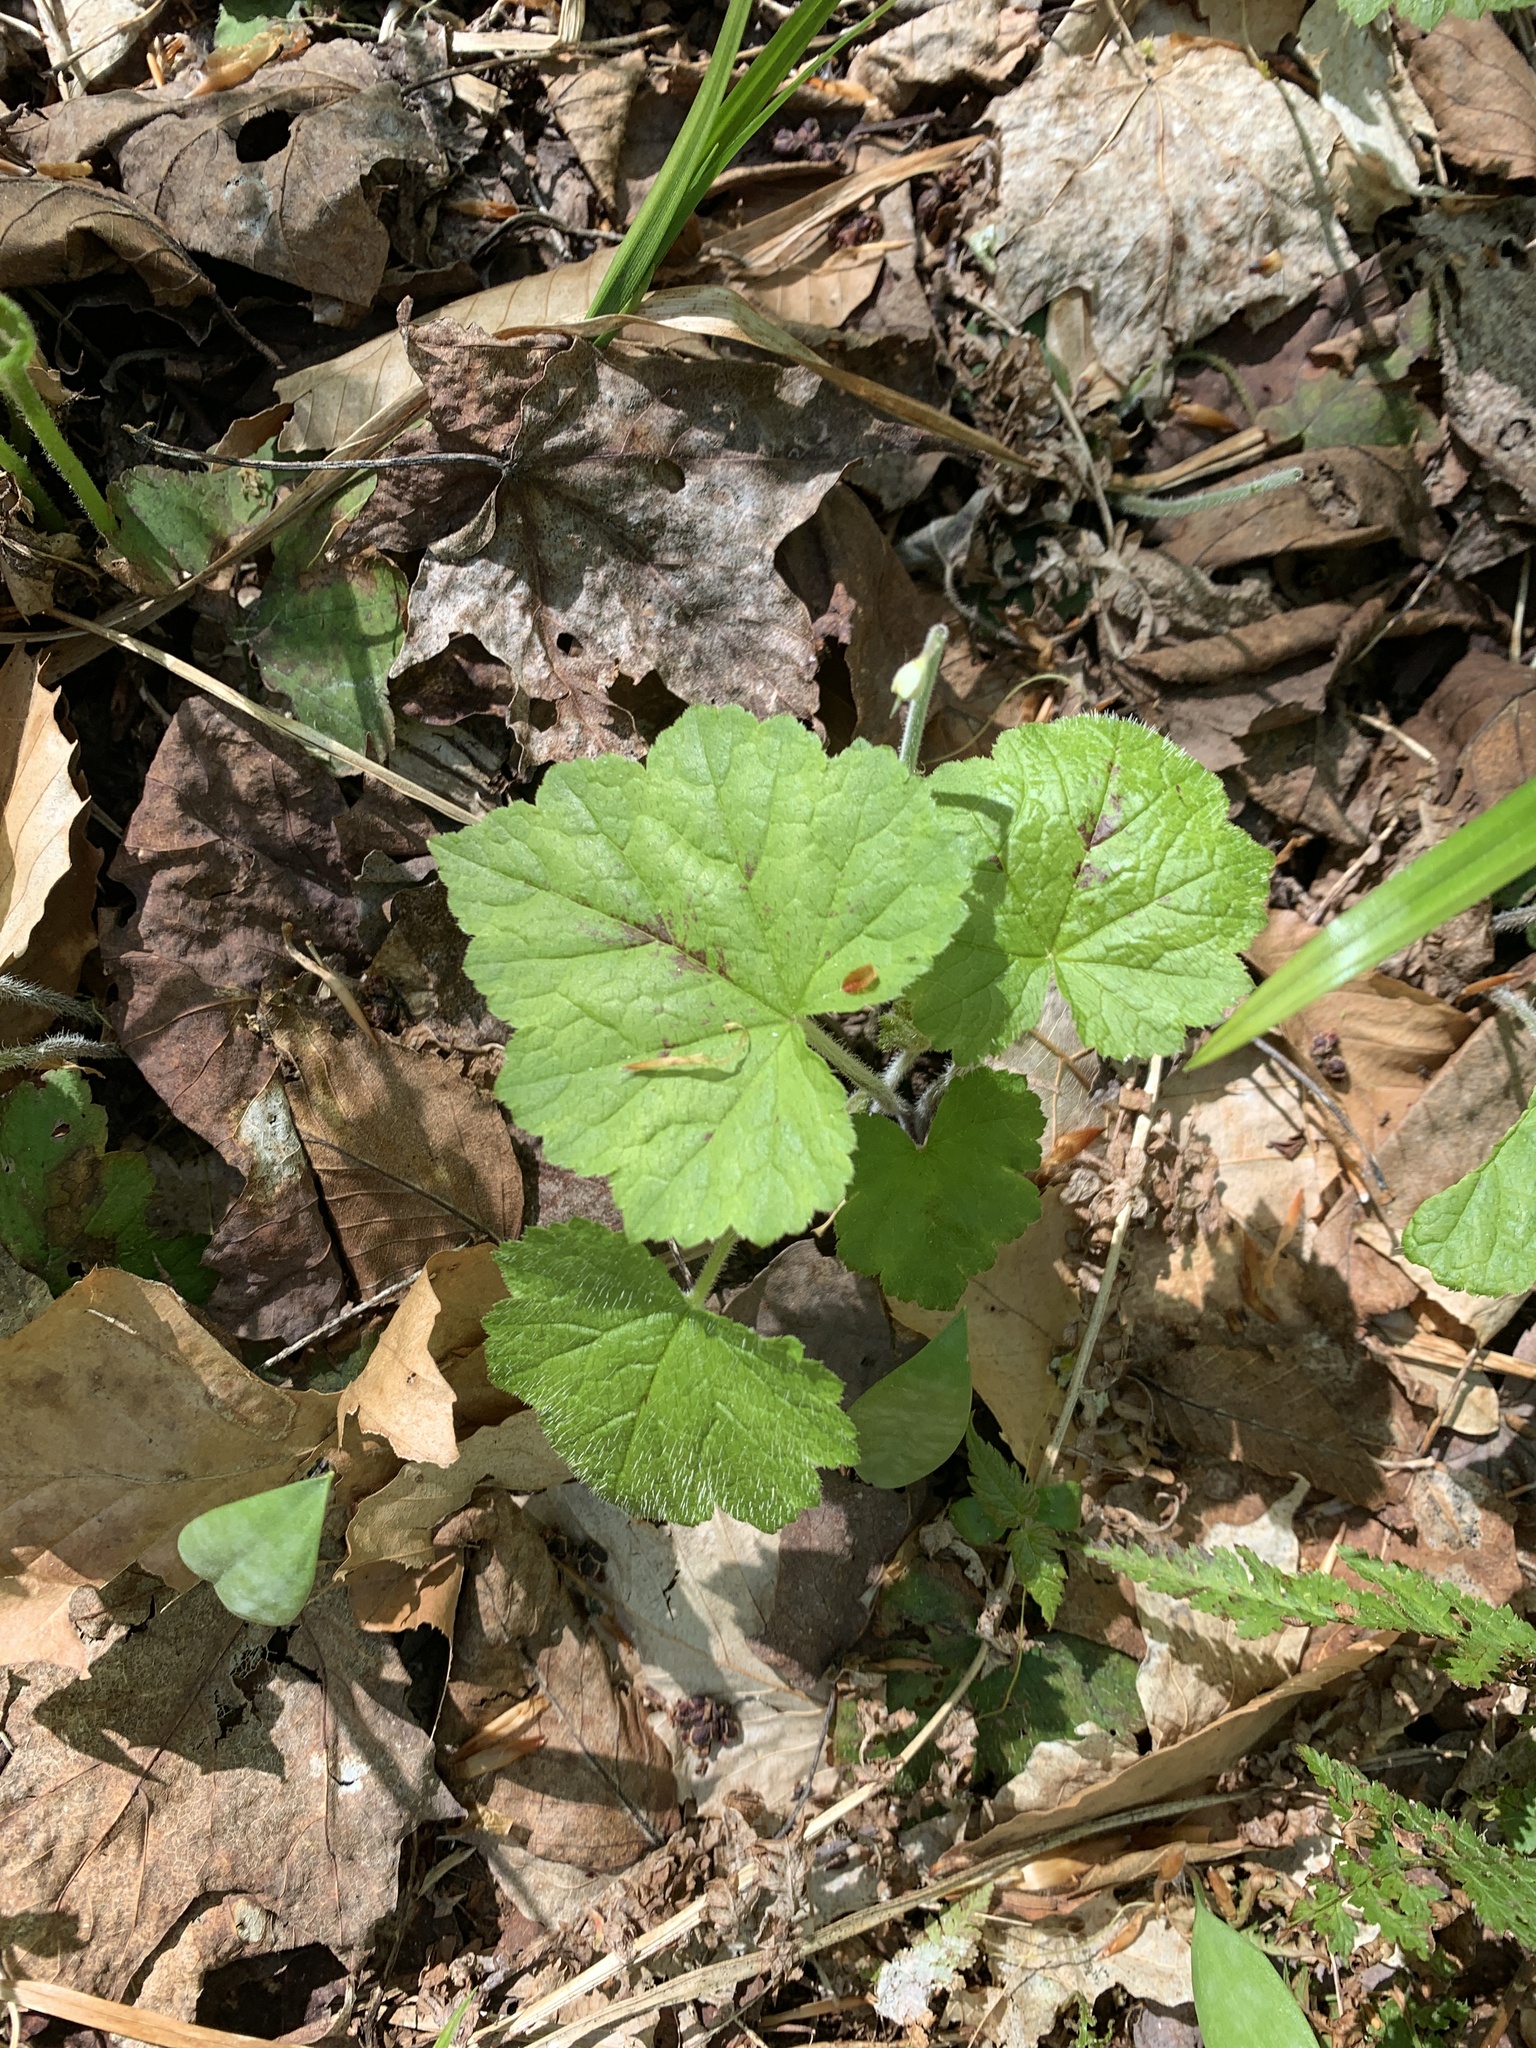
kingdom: Plantae
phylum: Tracheophyta
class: Magnoliopsida
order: Saxifragales
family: Saxifragaceae
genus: Tiarella
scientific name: Tiarella stolonifera
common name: Stoloniferous foamflower
